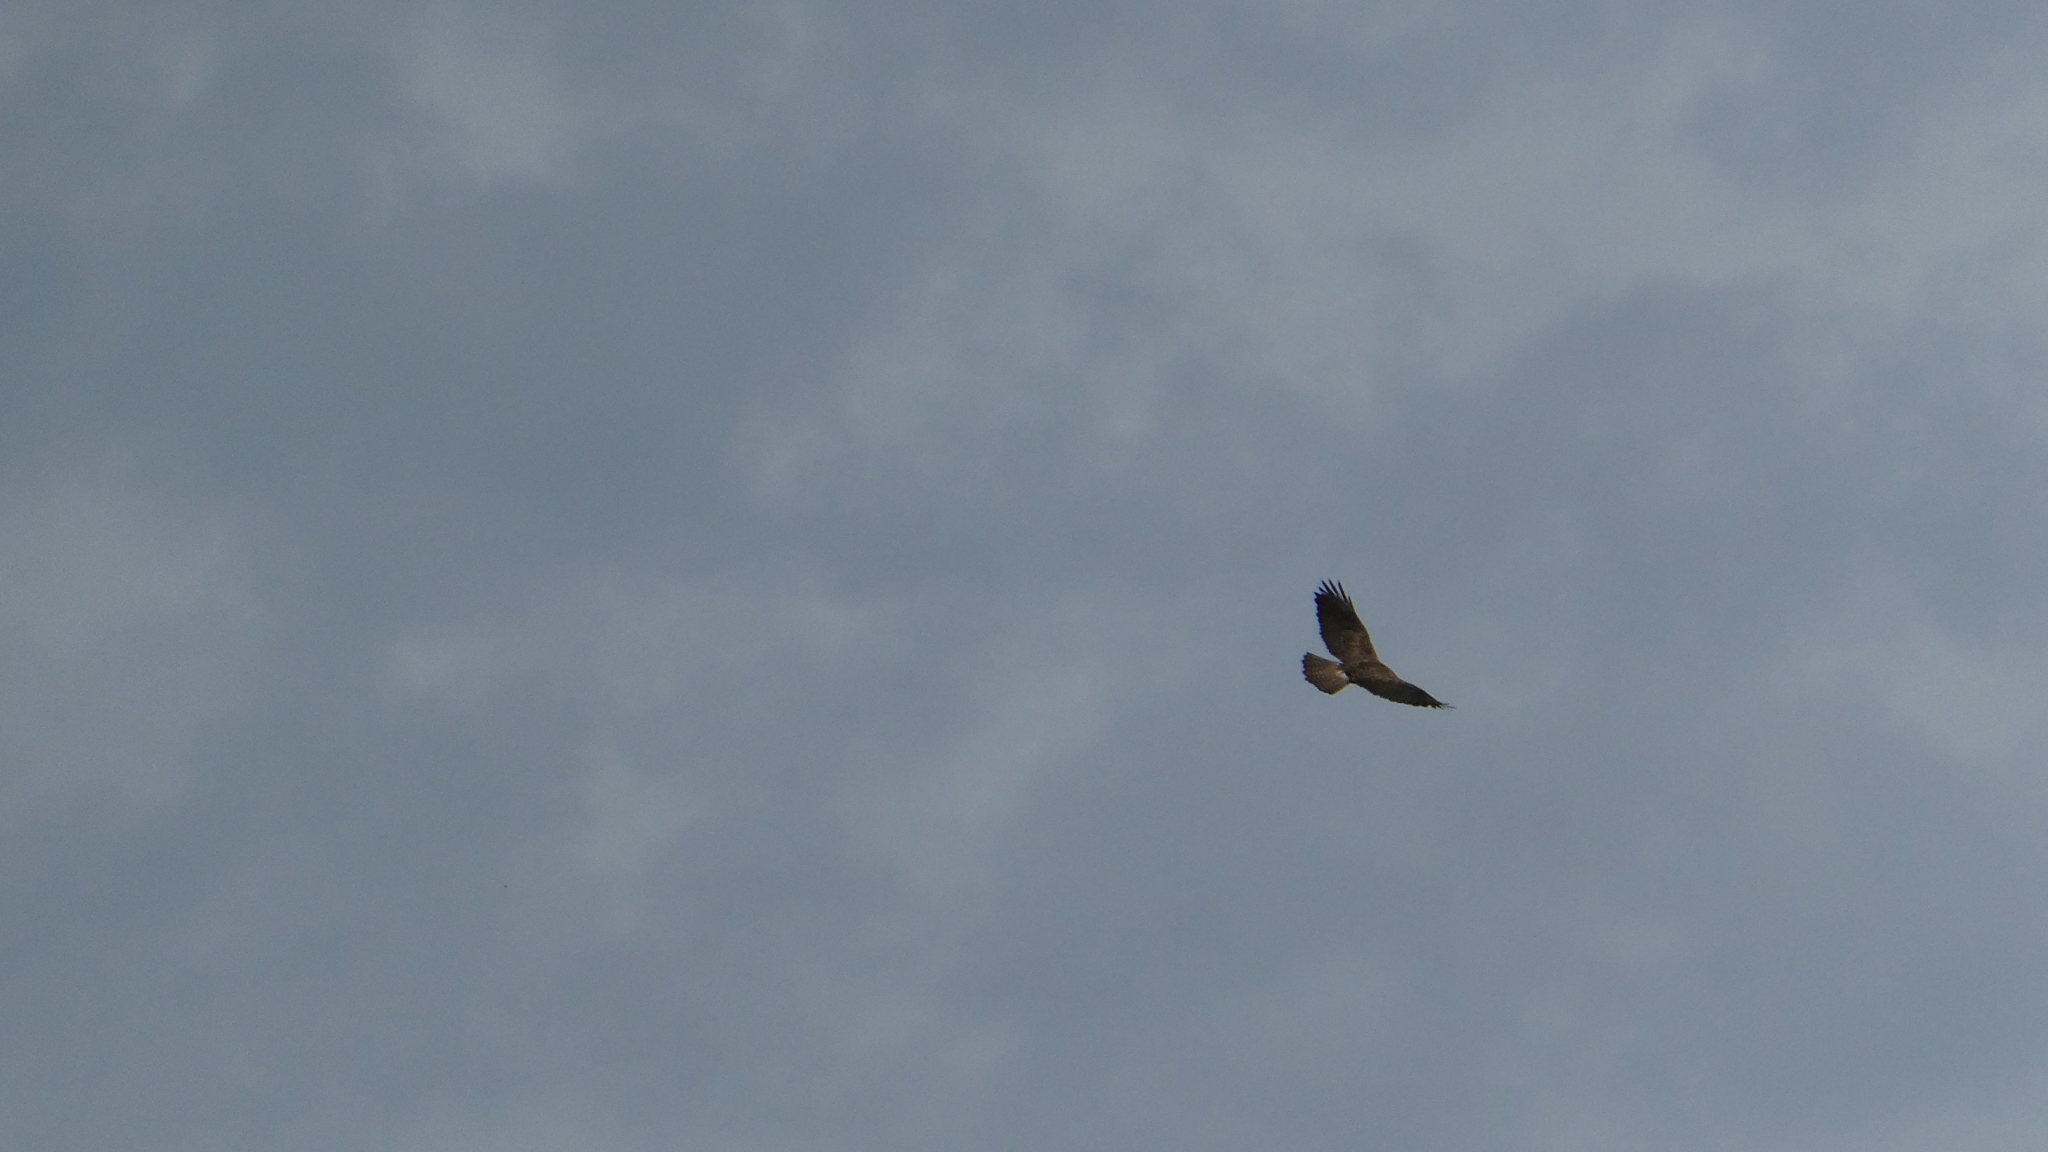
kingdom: Animalia
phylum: Chordata
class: Aves
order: Accipitriformes
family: Accipitridae
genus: Buteo
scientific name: Buteo swainsoni
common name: Swainson's hawk
